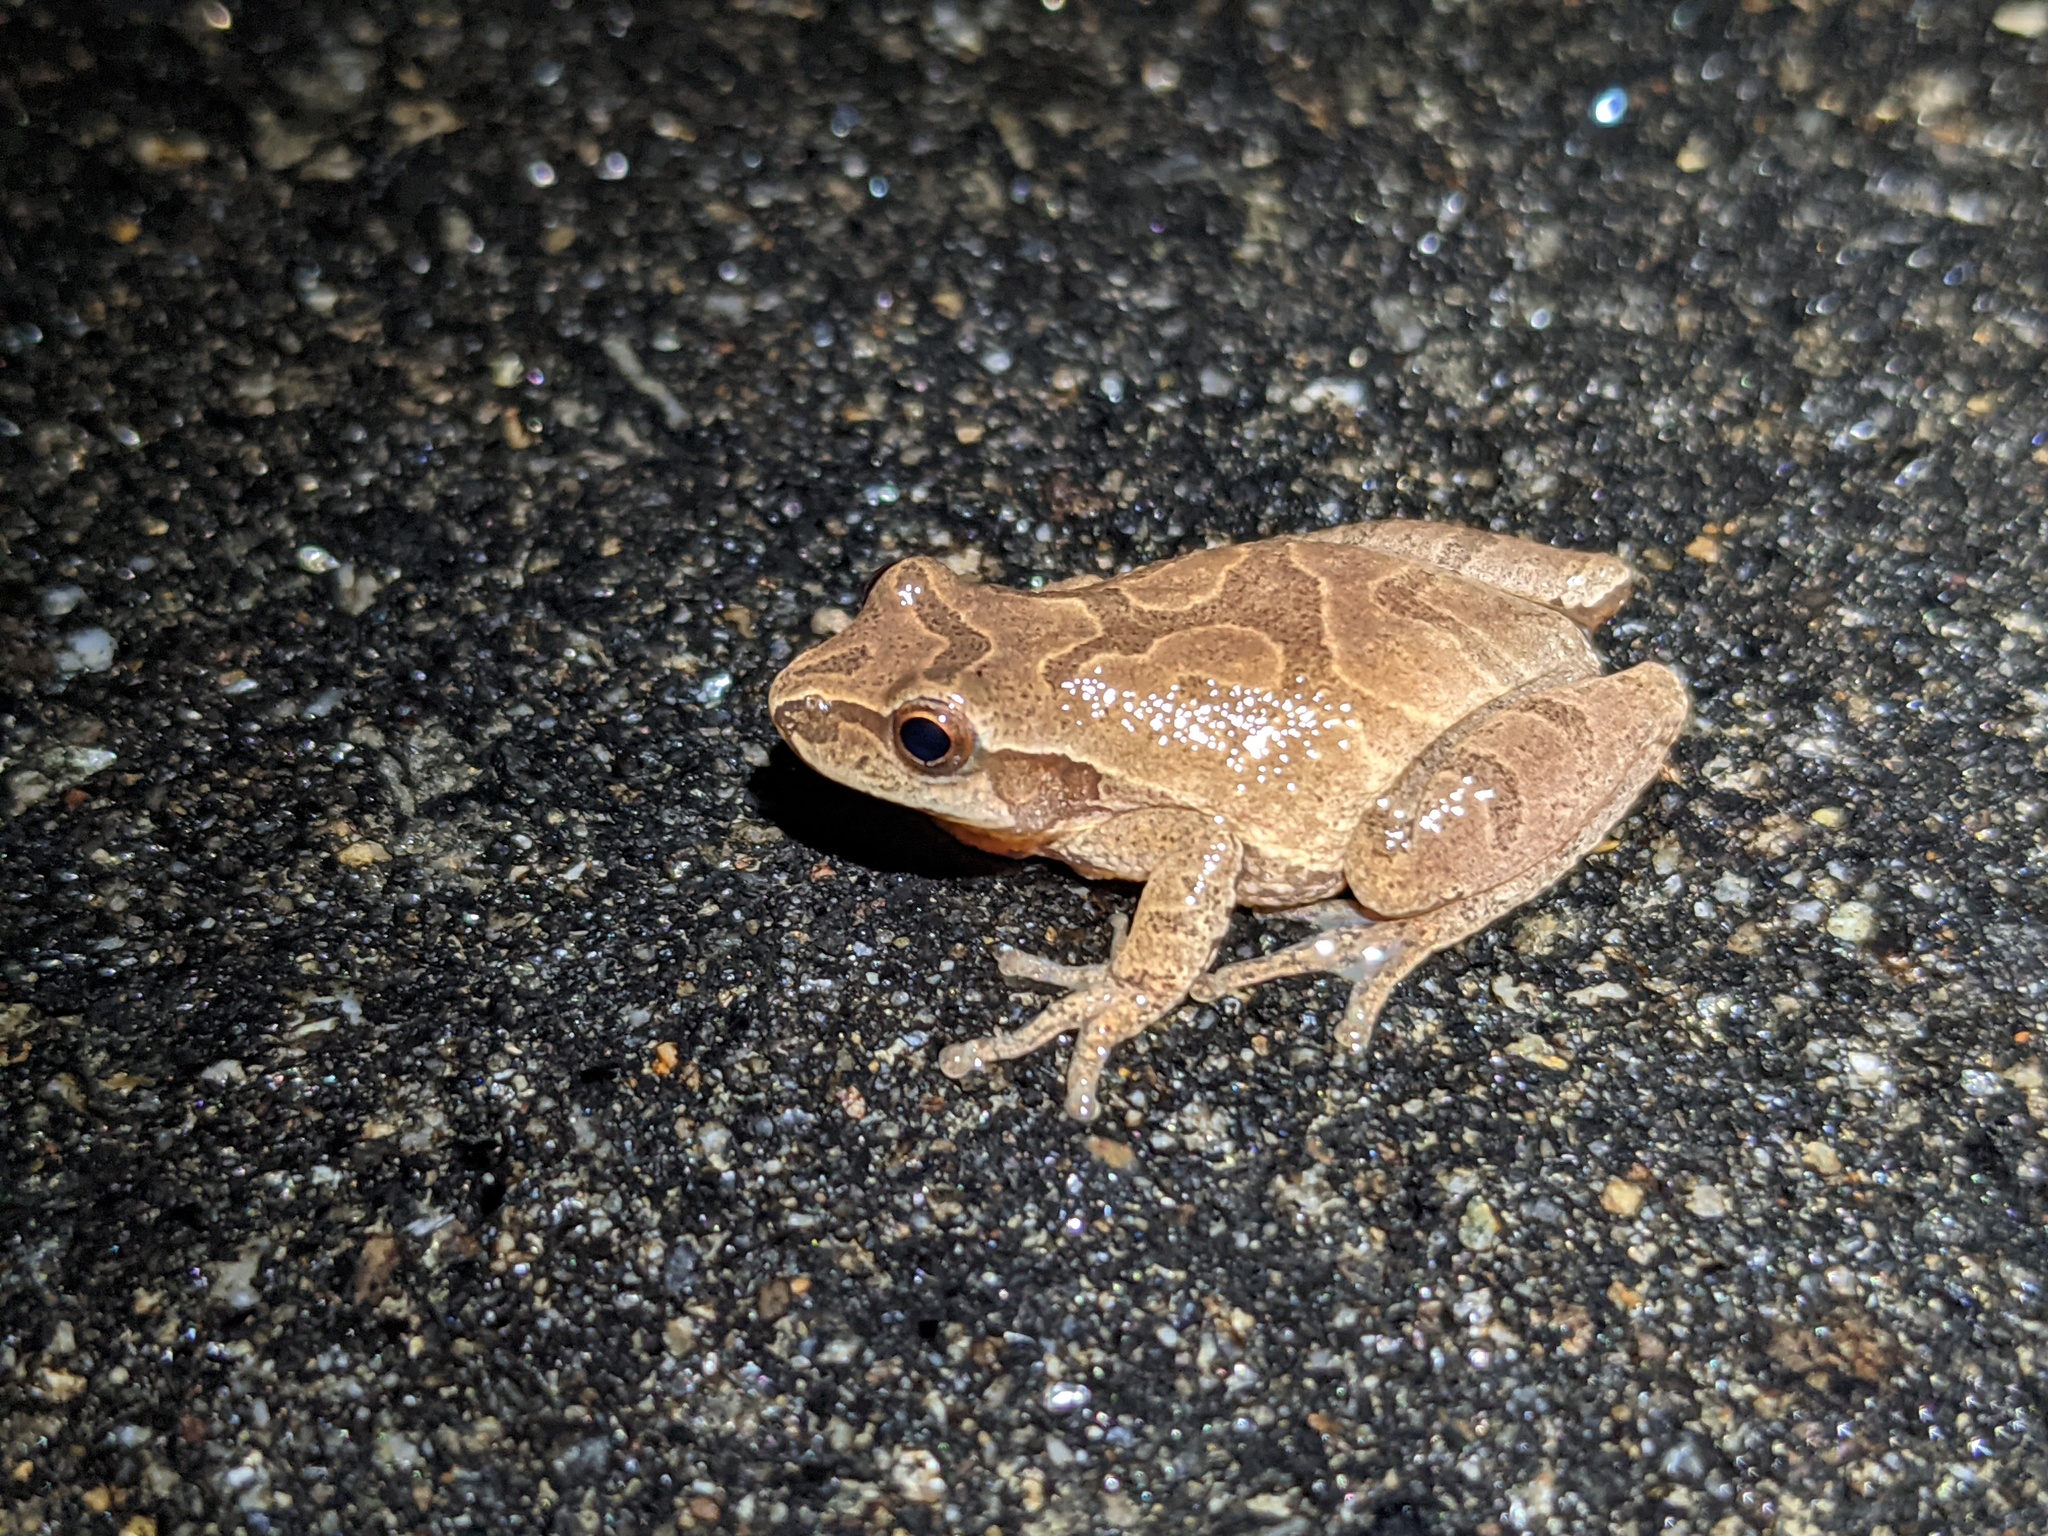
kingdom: Animalia
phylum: Chordata
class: Amphibia
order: Anura
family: Hylidae
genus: Pseudacris
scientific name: Pseudacris crucifer
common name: Spring peeper
